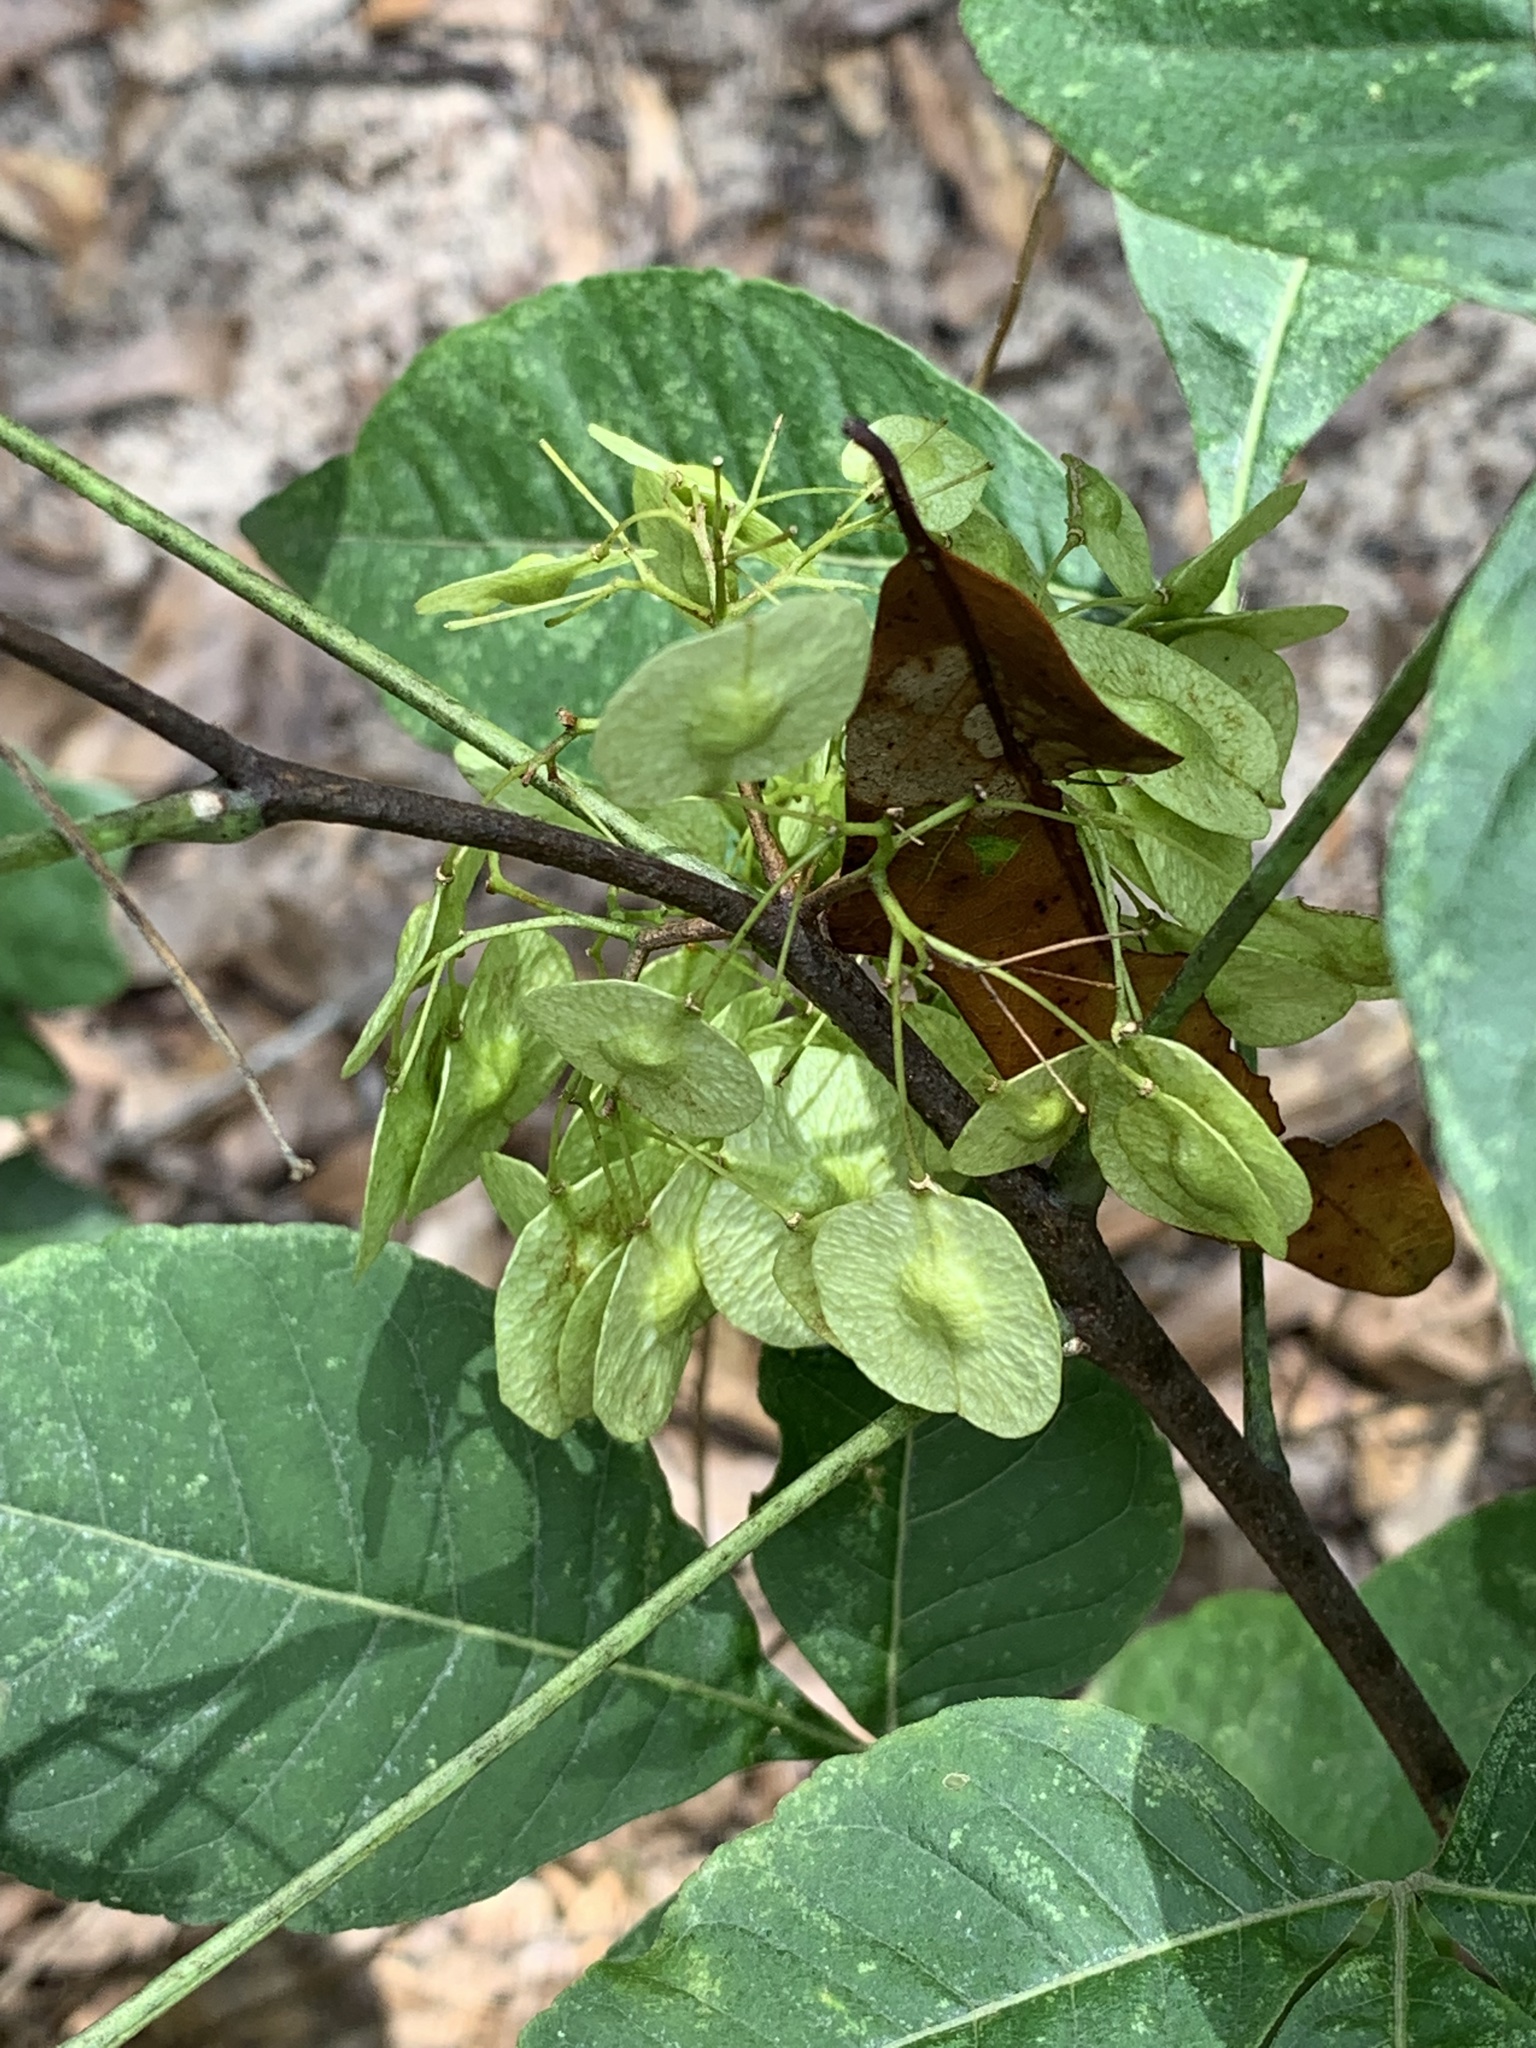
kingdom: Plantae
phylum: Tracheophyta
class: Magnoliopsida
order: Sapindales
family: Rutaceae
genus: Ptelea
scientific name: Ptelea trifoliata
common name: Common hop-tree
